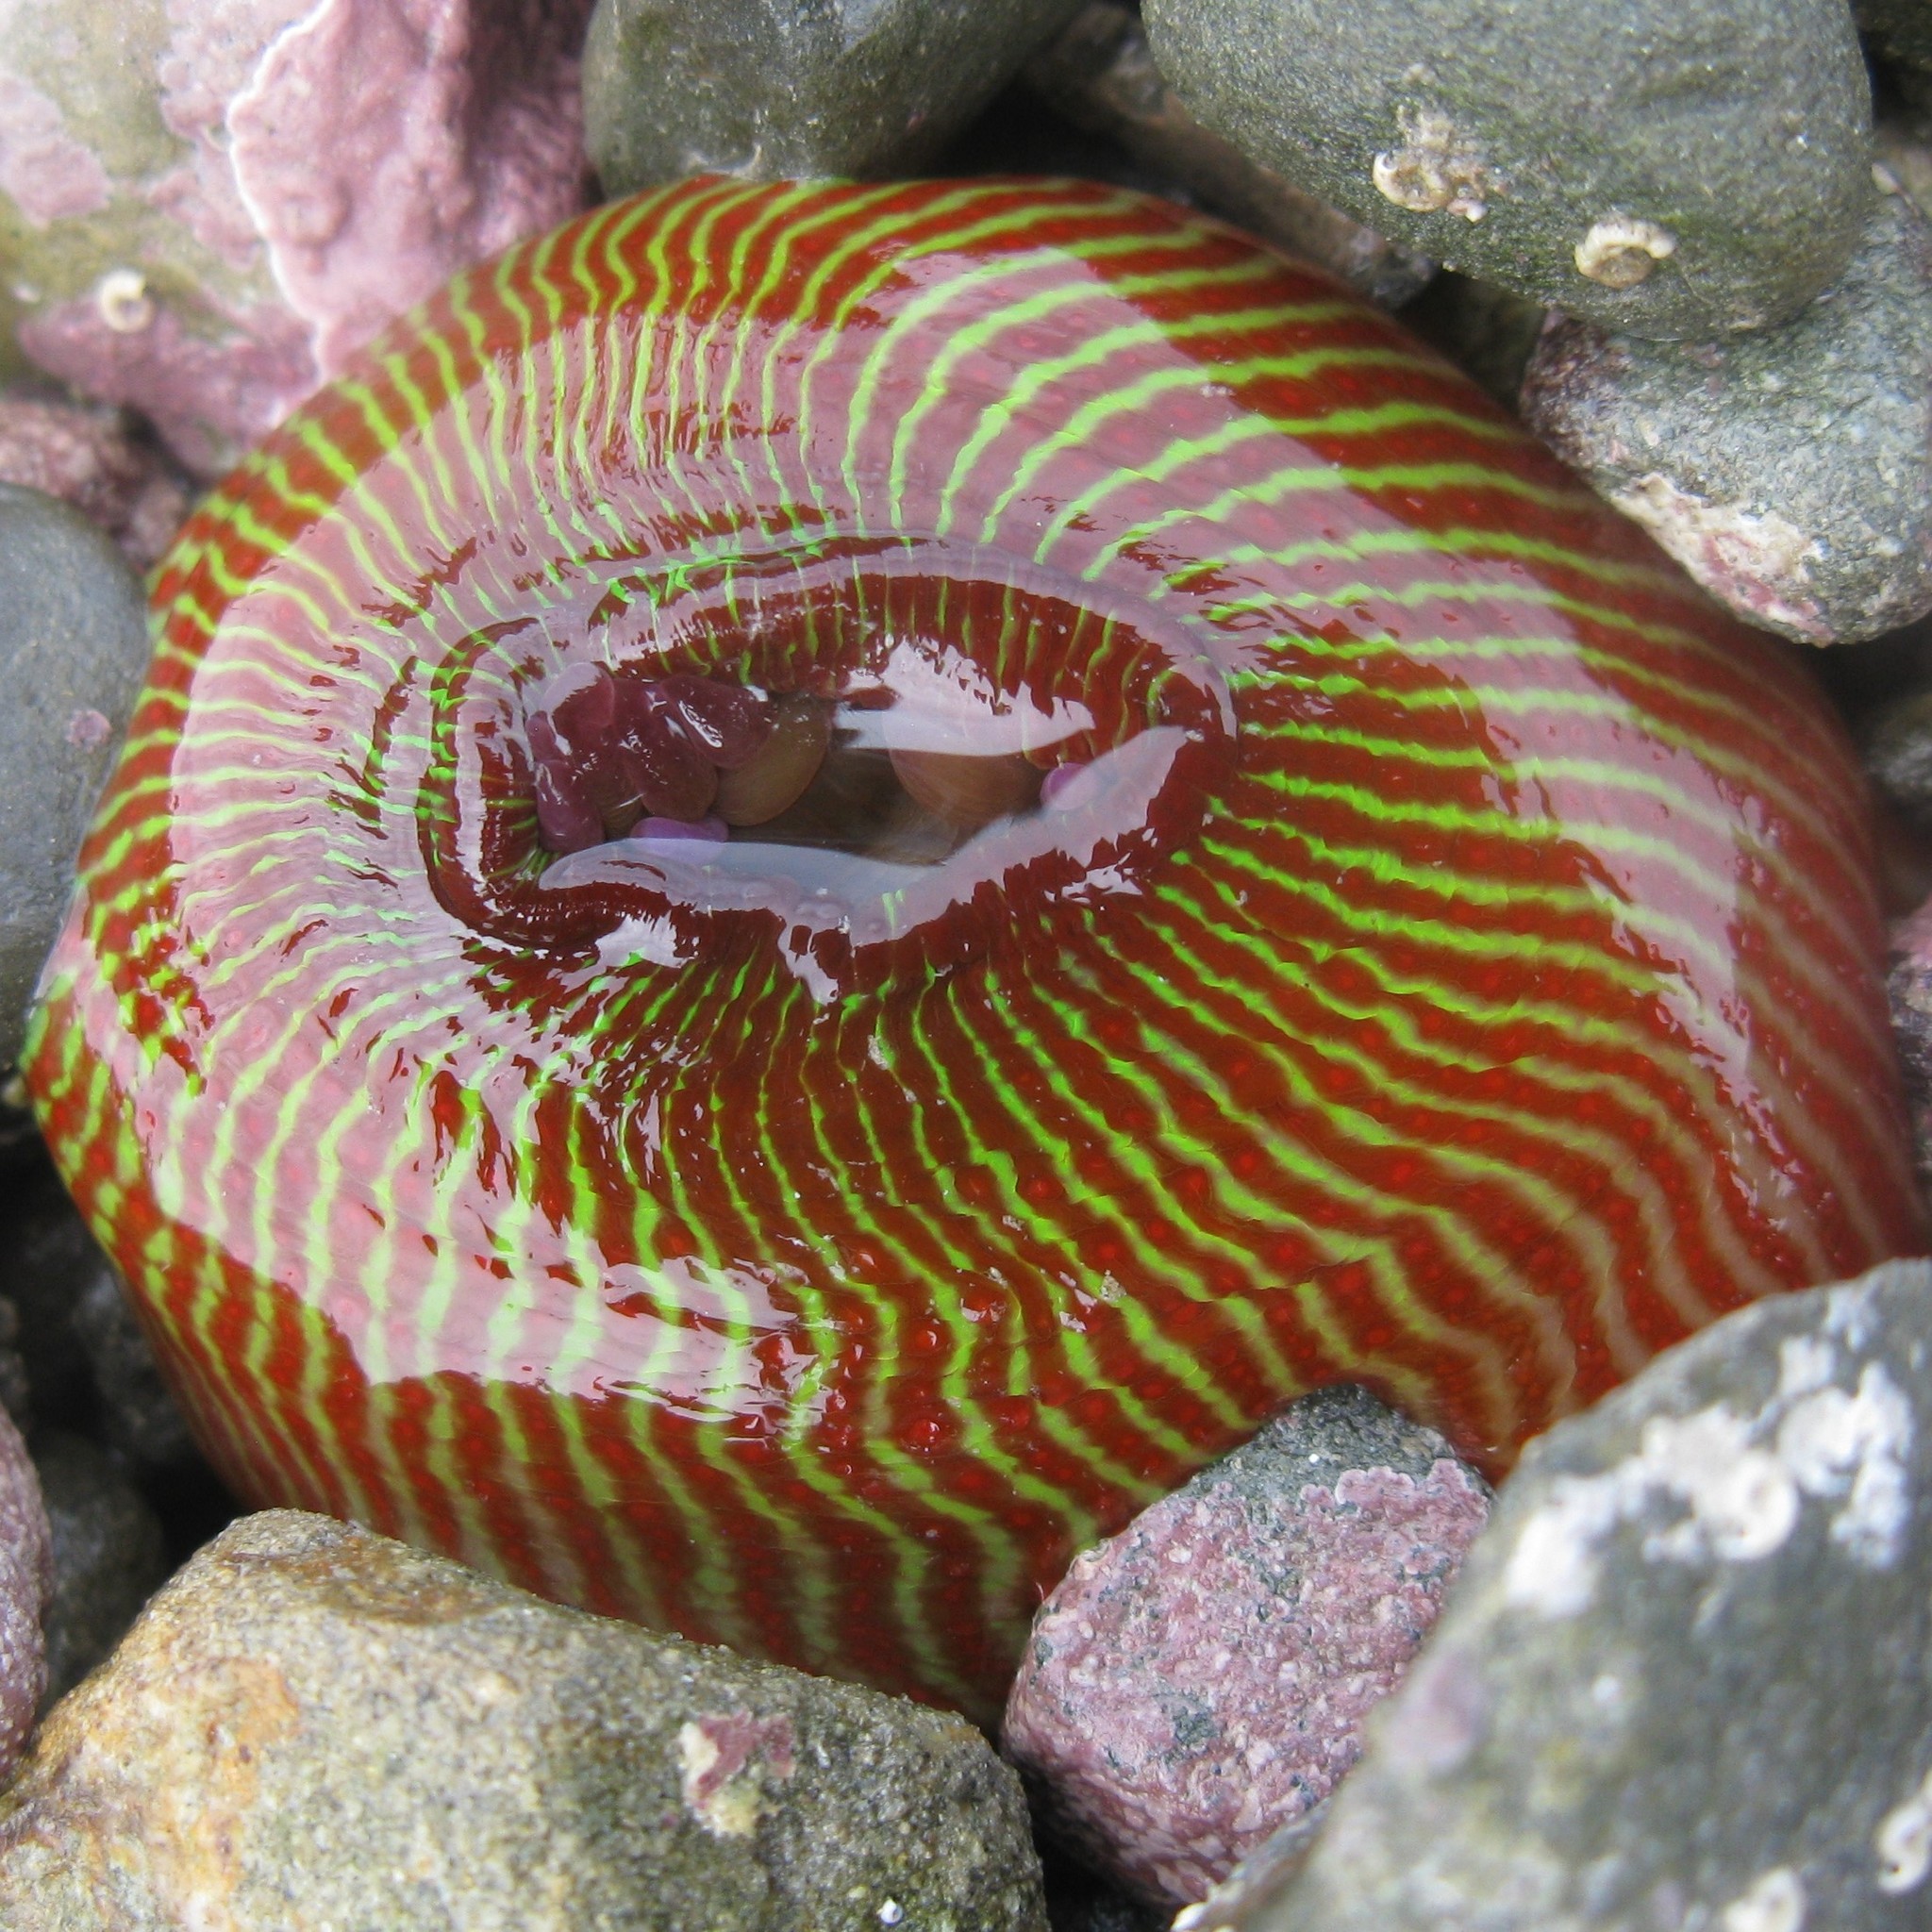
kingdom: Animalia
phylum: Cnidaria
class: Anthozoa
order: Actiniaria
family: Actiniidae
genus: Epiactis
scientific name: Epiactis thompsoni
